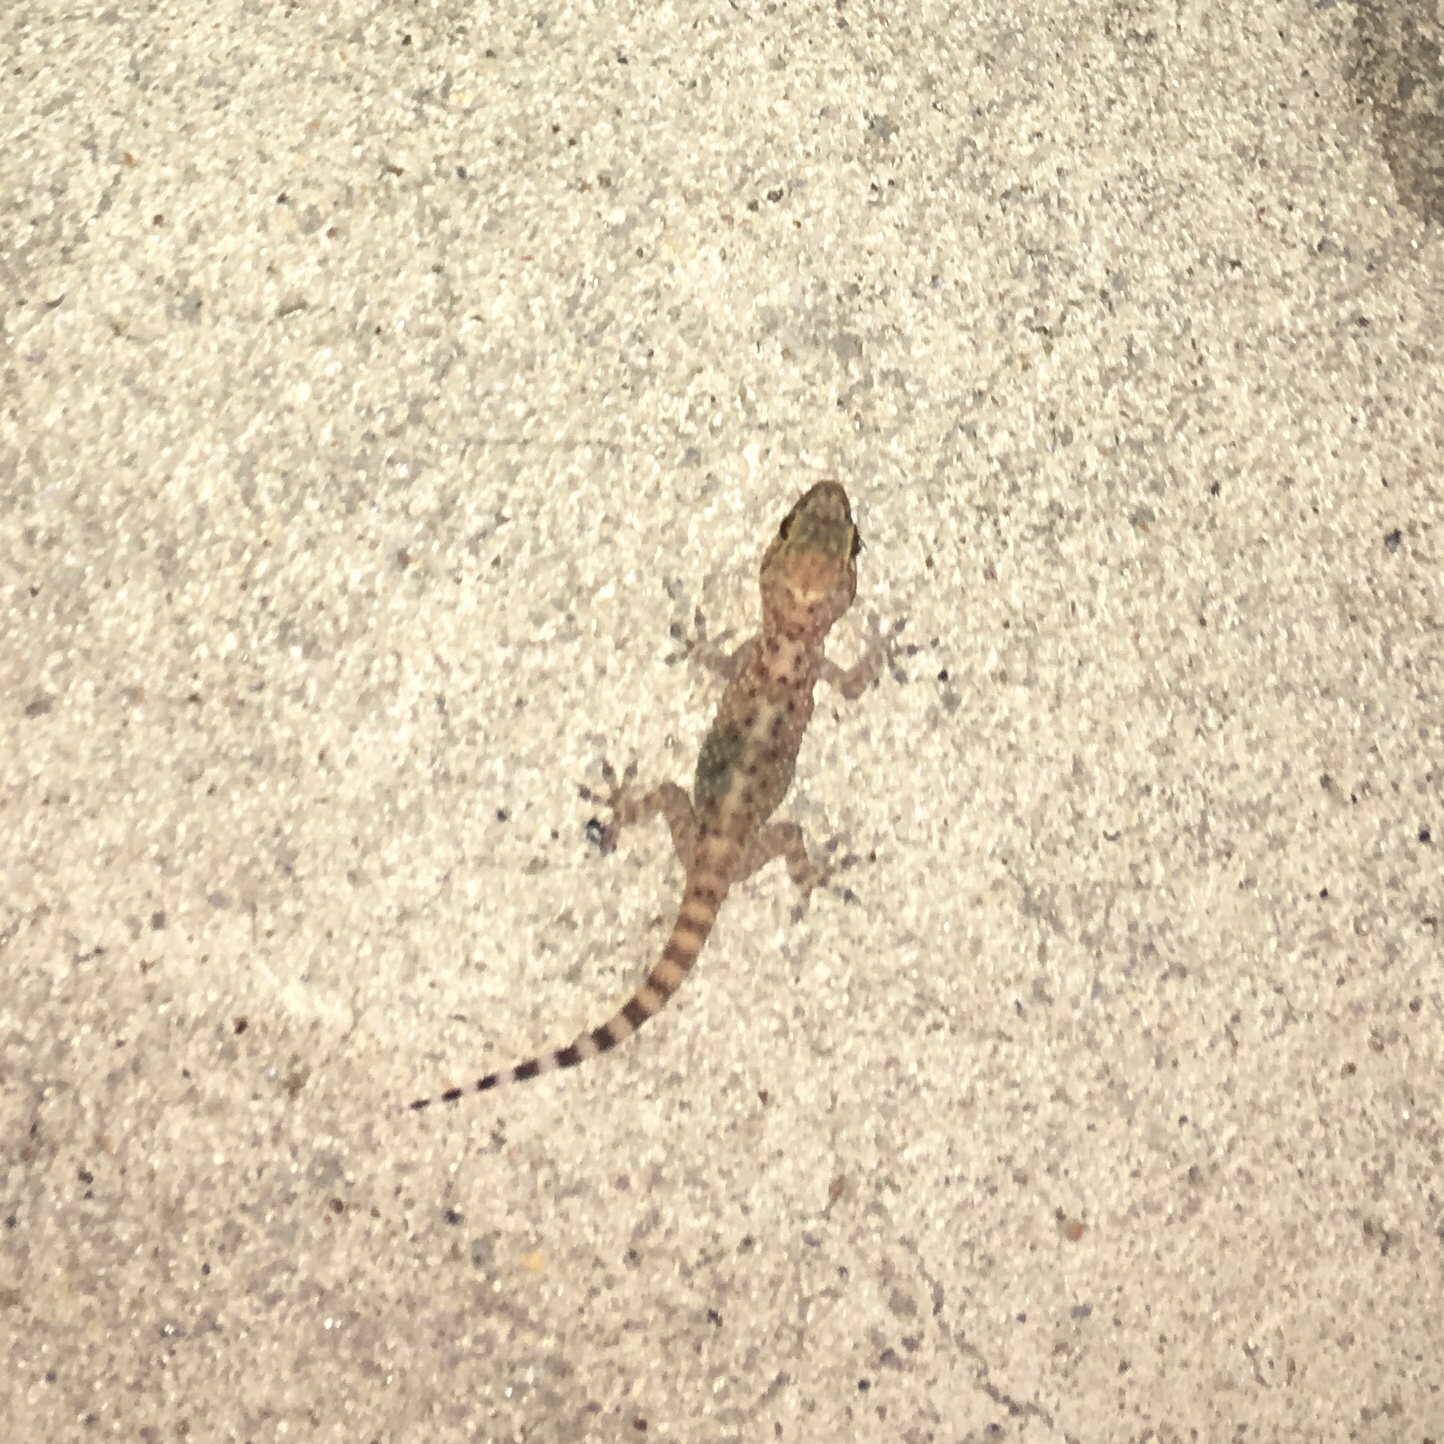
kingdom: Animalia
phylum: Chordata
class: Squamata
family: Gekkonidae
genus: Hemidactylus
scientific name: Hemidactylus turcicus
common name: Turkish gecko
